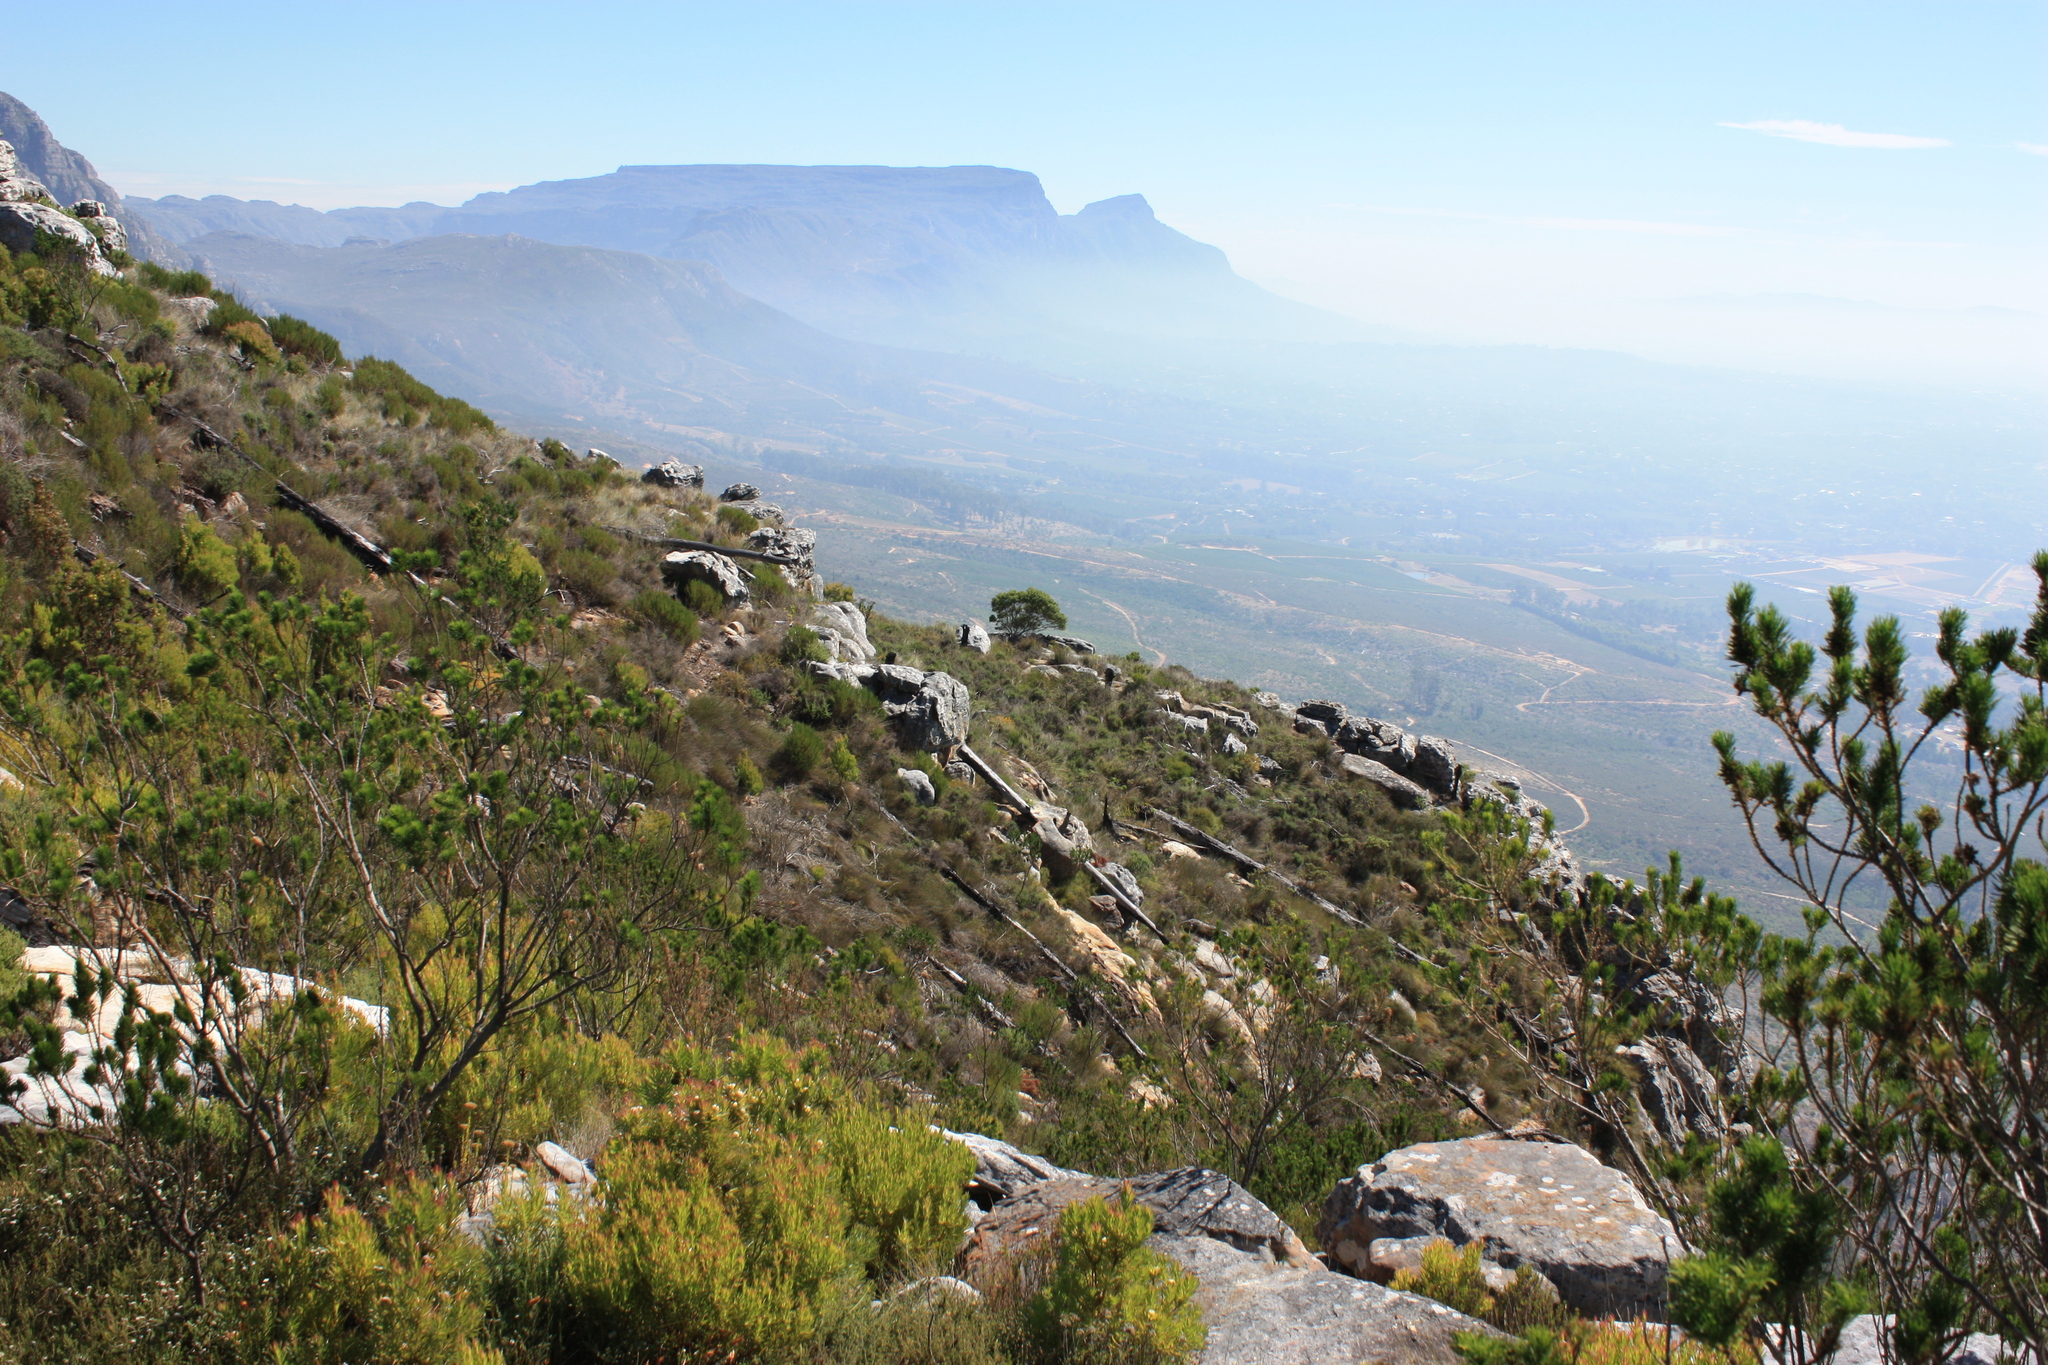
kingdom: Plantae
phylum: Tracheophyta
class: Magnoliopsida
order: Proteales
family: Proteaceae
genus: Leucadendron
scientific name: Leucadendron xanthoconus
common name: Sickle-leaf conebush
